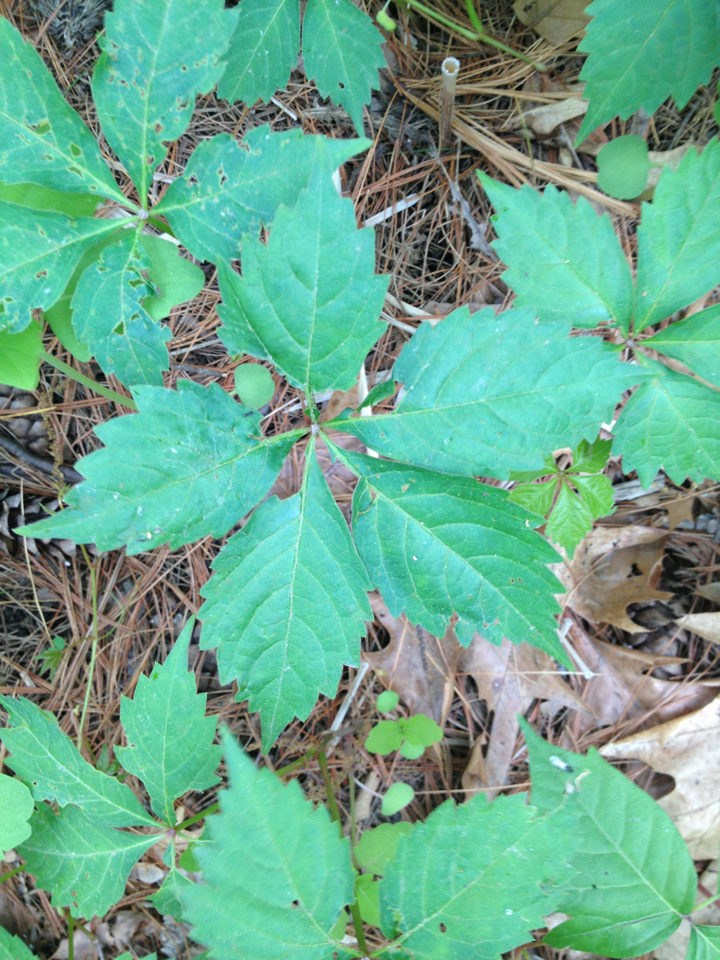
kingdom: Plantae
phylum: Tracheophyta
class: Magnoliopsida
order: Vitales
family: Vitaceae
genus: Parthenocissus
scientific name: Parthenocissus quinquefolia
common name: Virginia-creeper
